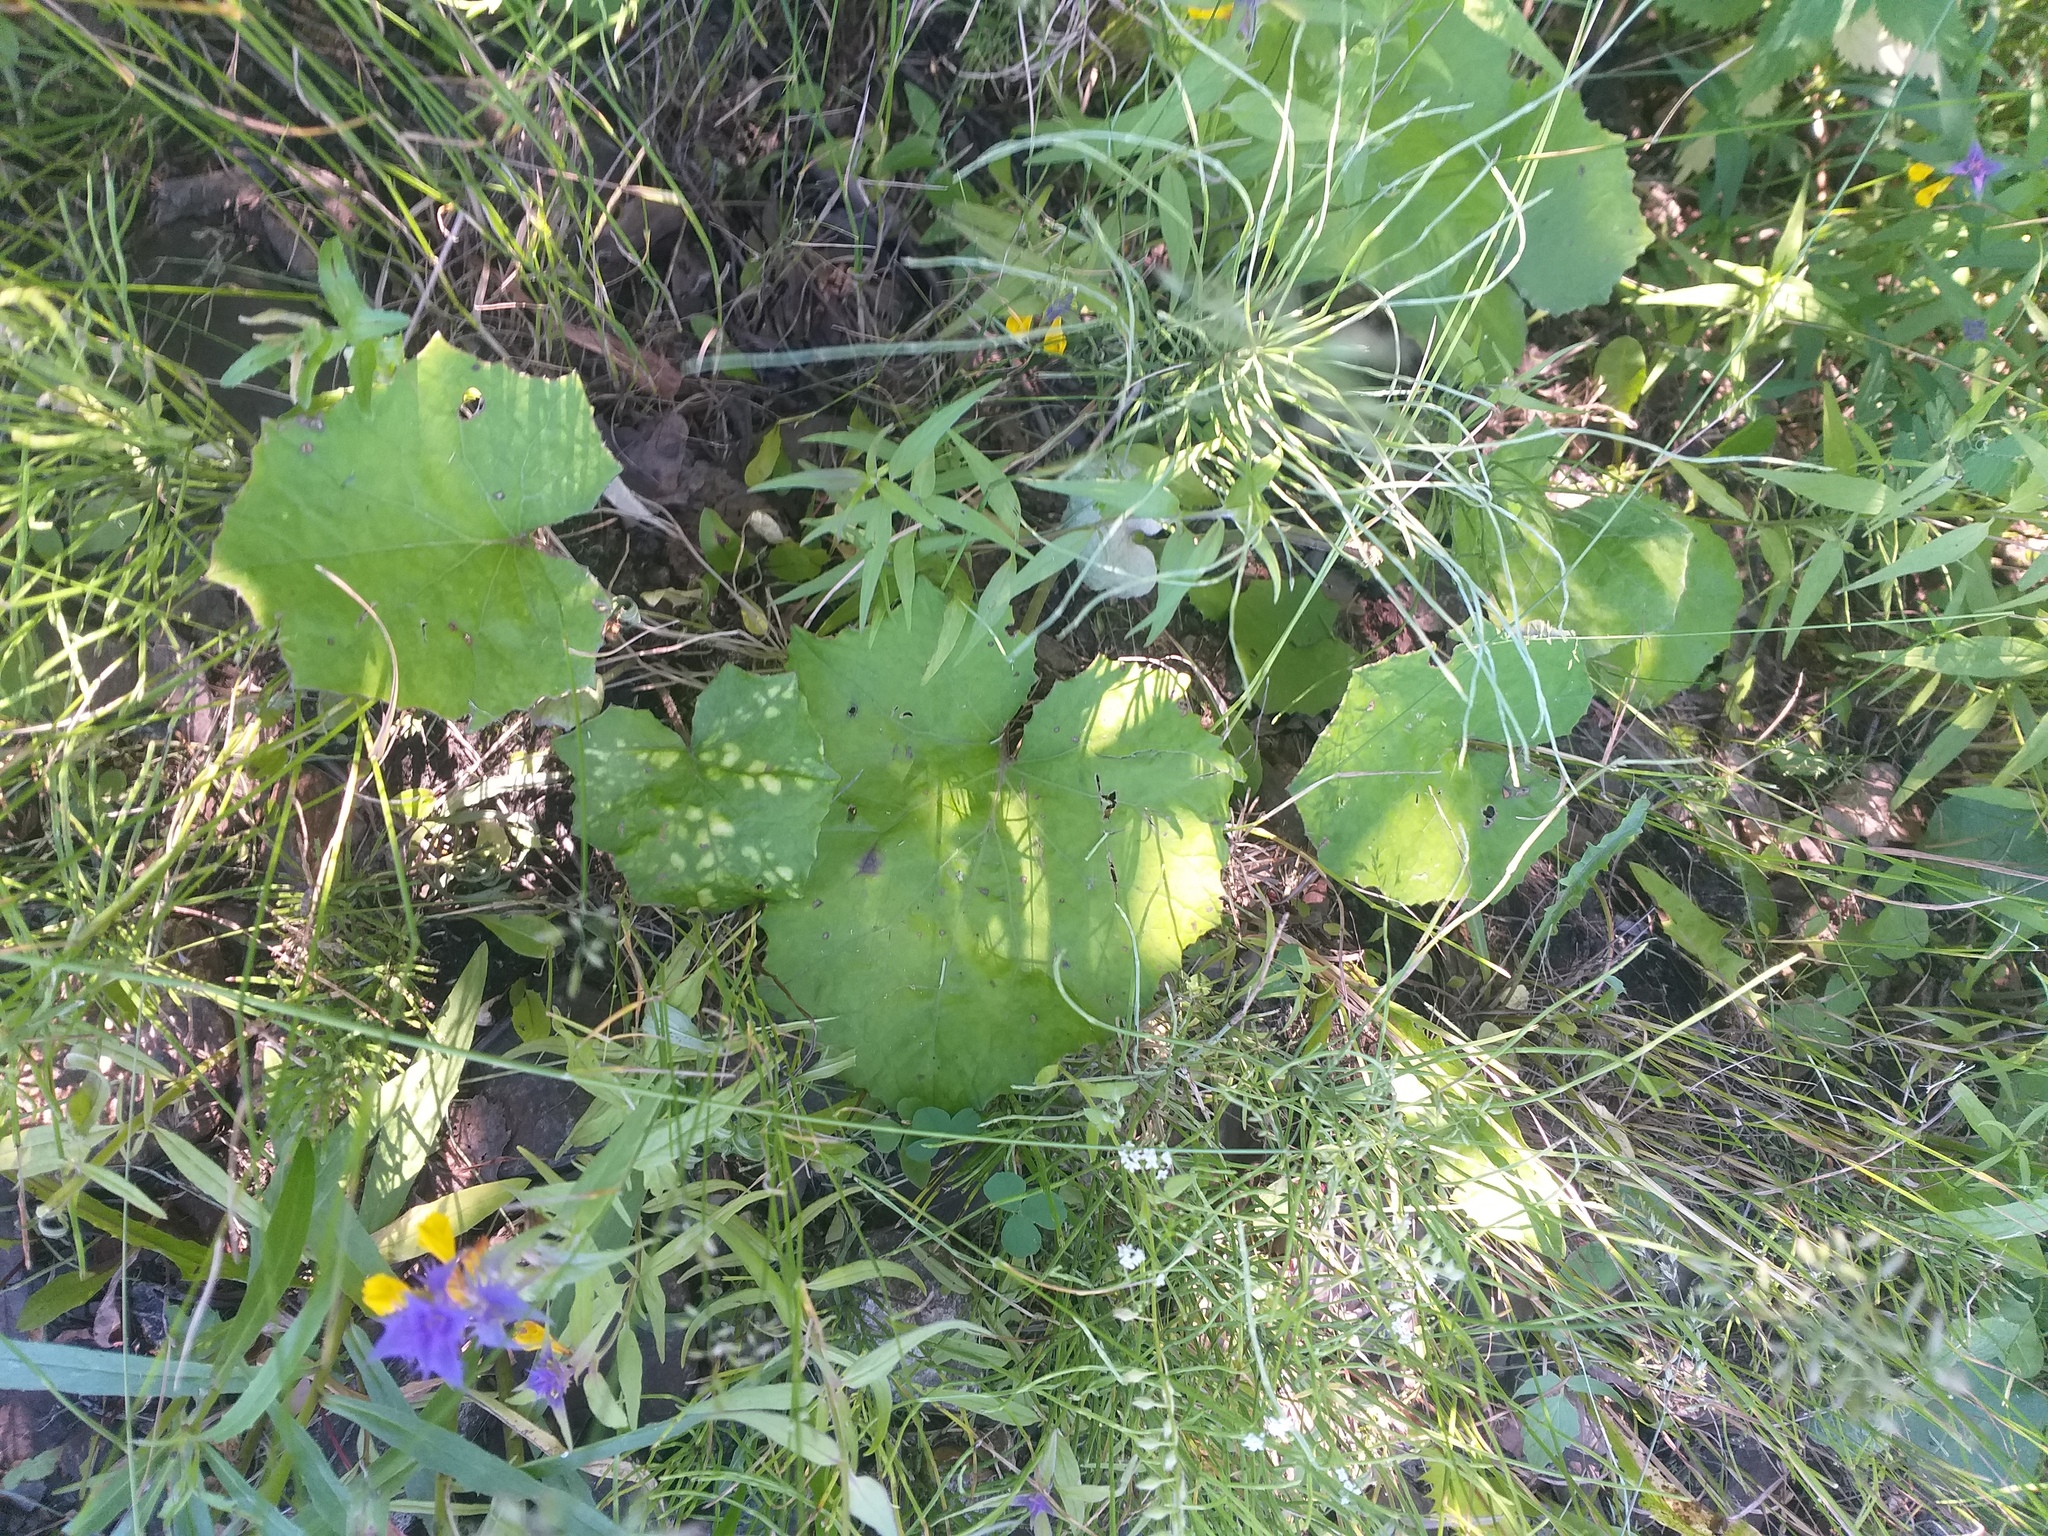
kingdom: Plantae
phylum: Tracheophyta
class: Magnoliopsida
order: Asterales
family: Asteraceae
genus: Tussilago
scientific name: Tussilago farfara
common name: Coltsfoot
